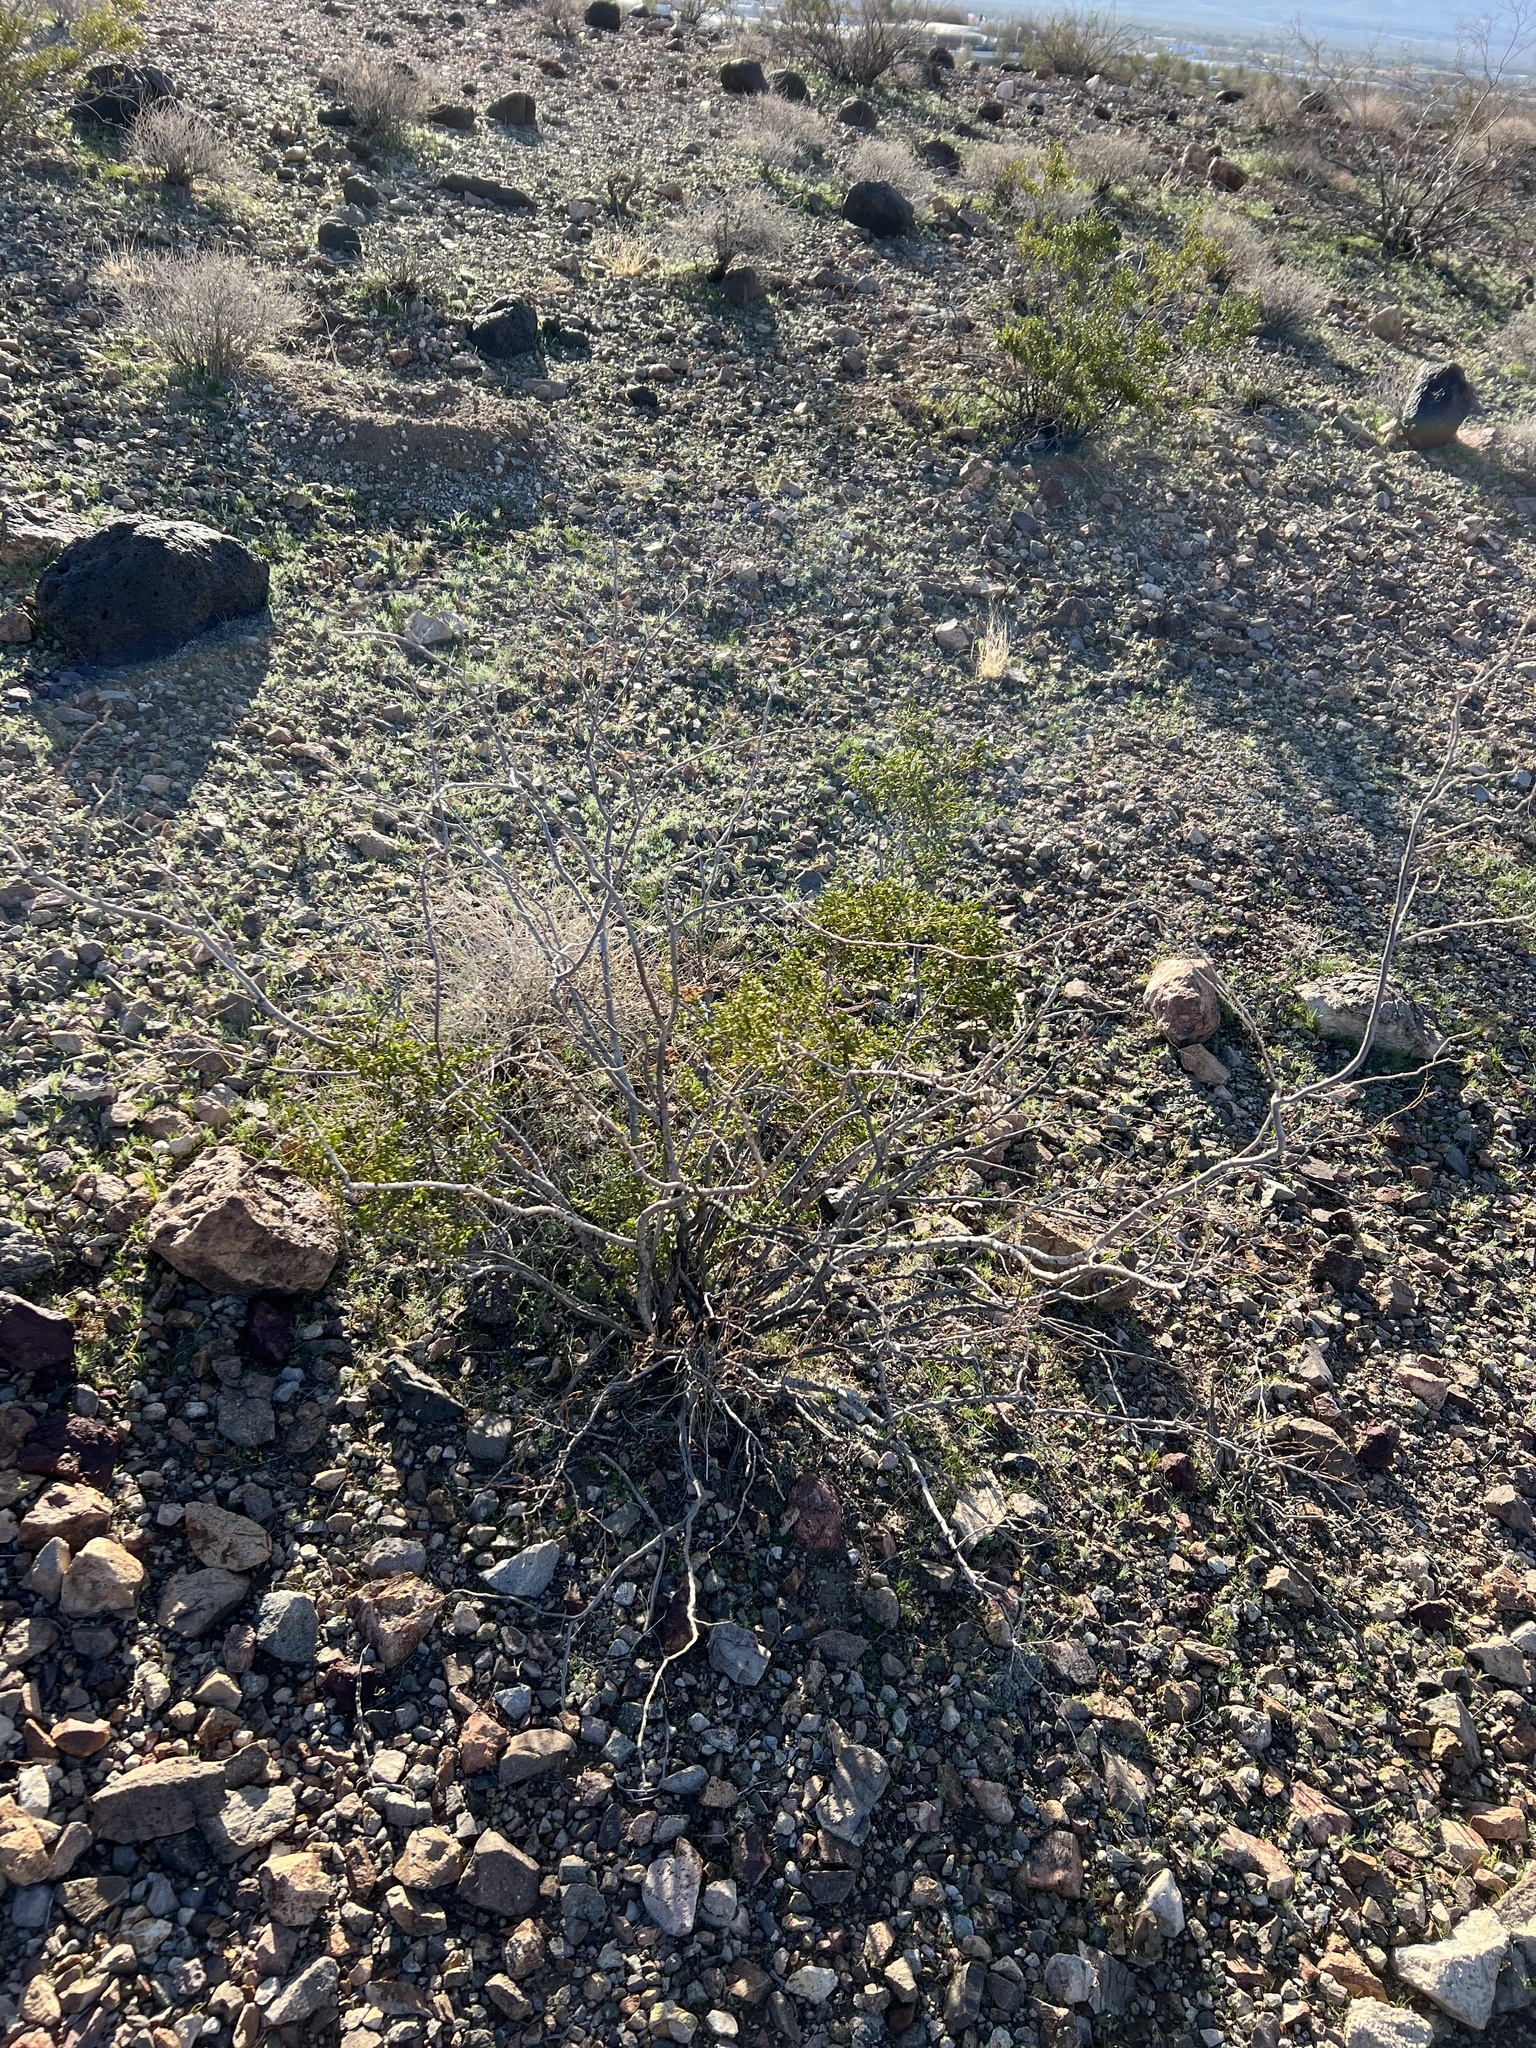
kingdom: Plantae
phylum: Tracheophyta
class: Magnoliopsida
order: Zygophyllales
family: Zygophyllaceae
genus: Larrea
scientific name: Larrea tridentata
